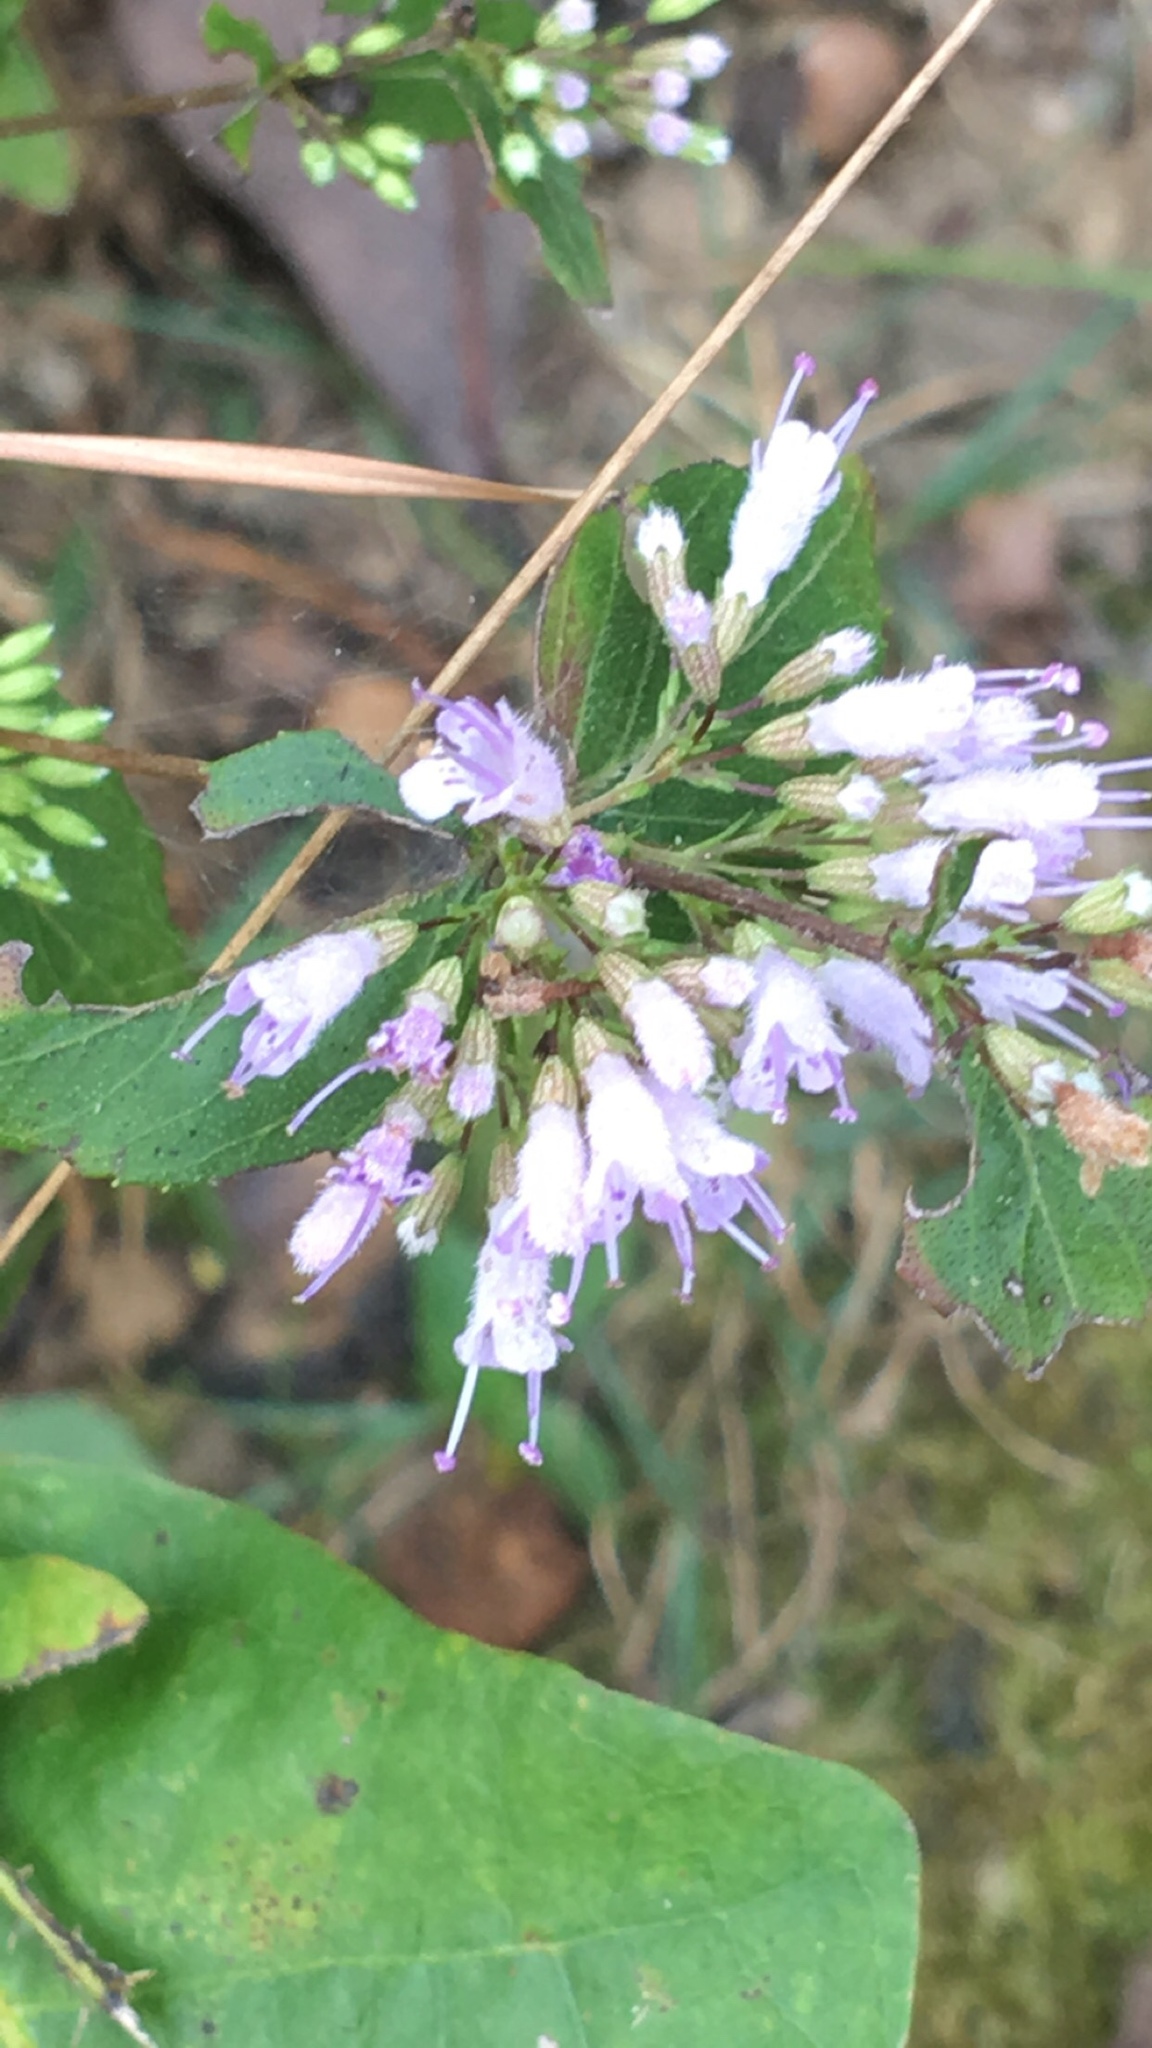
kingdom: Plantae
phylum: Tracheophyta
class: Magnoliopsida
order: Lamiales
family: Lamiaceae
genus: Cunila
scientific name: Cunila origanoides
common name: American dittany
